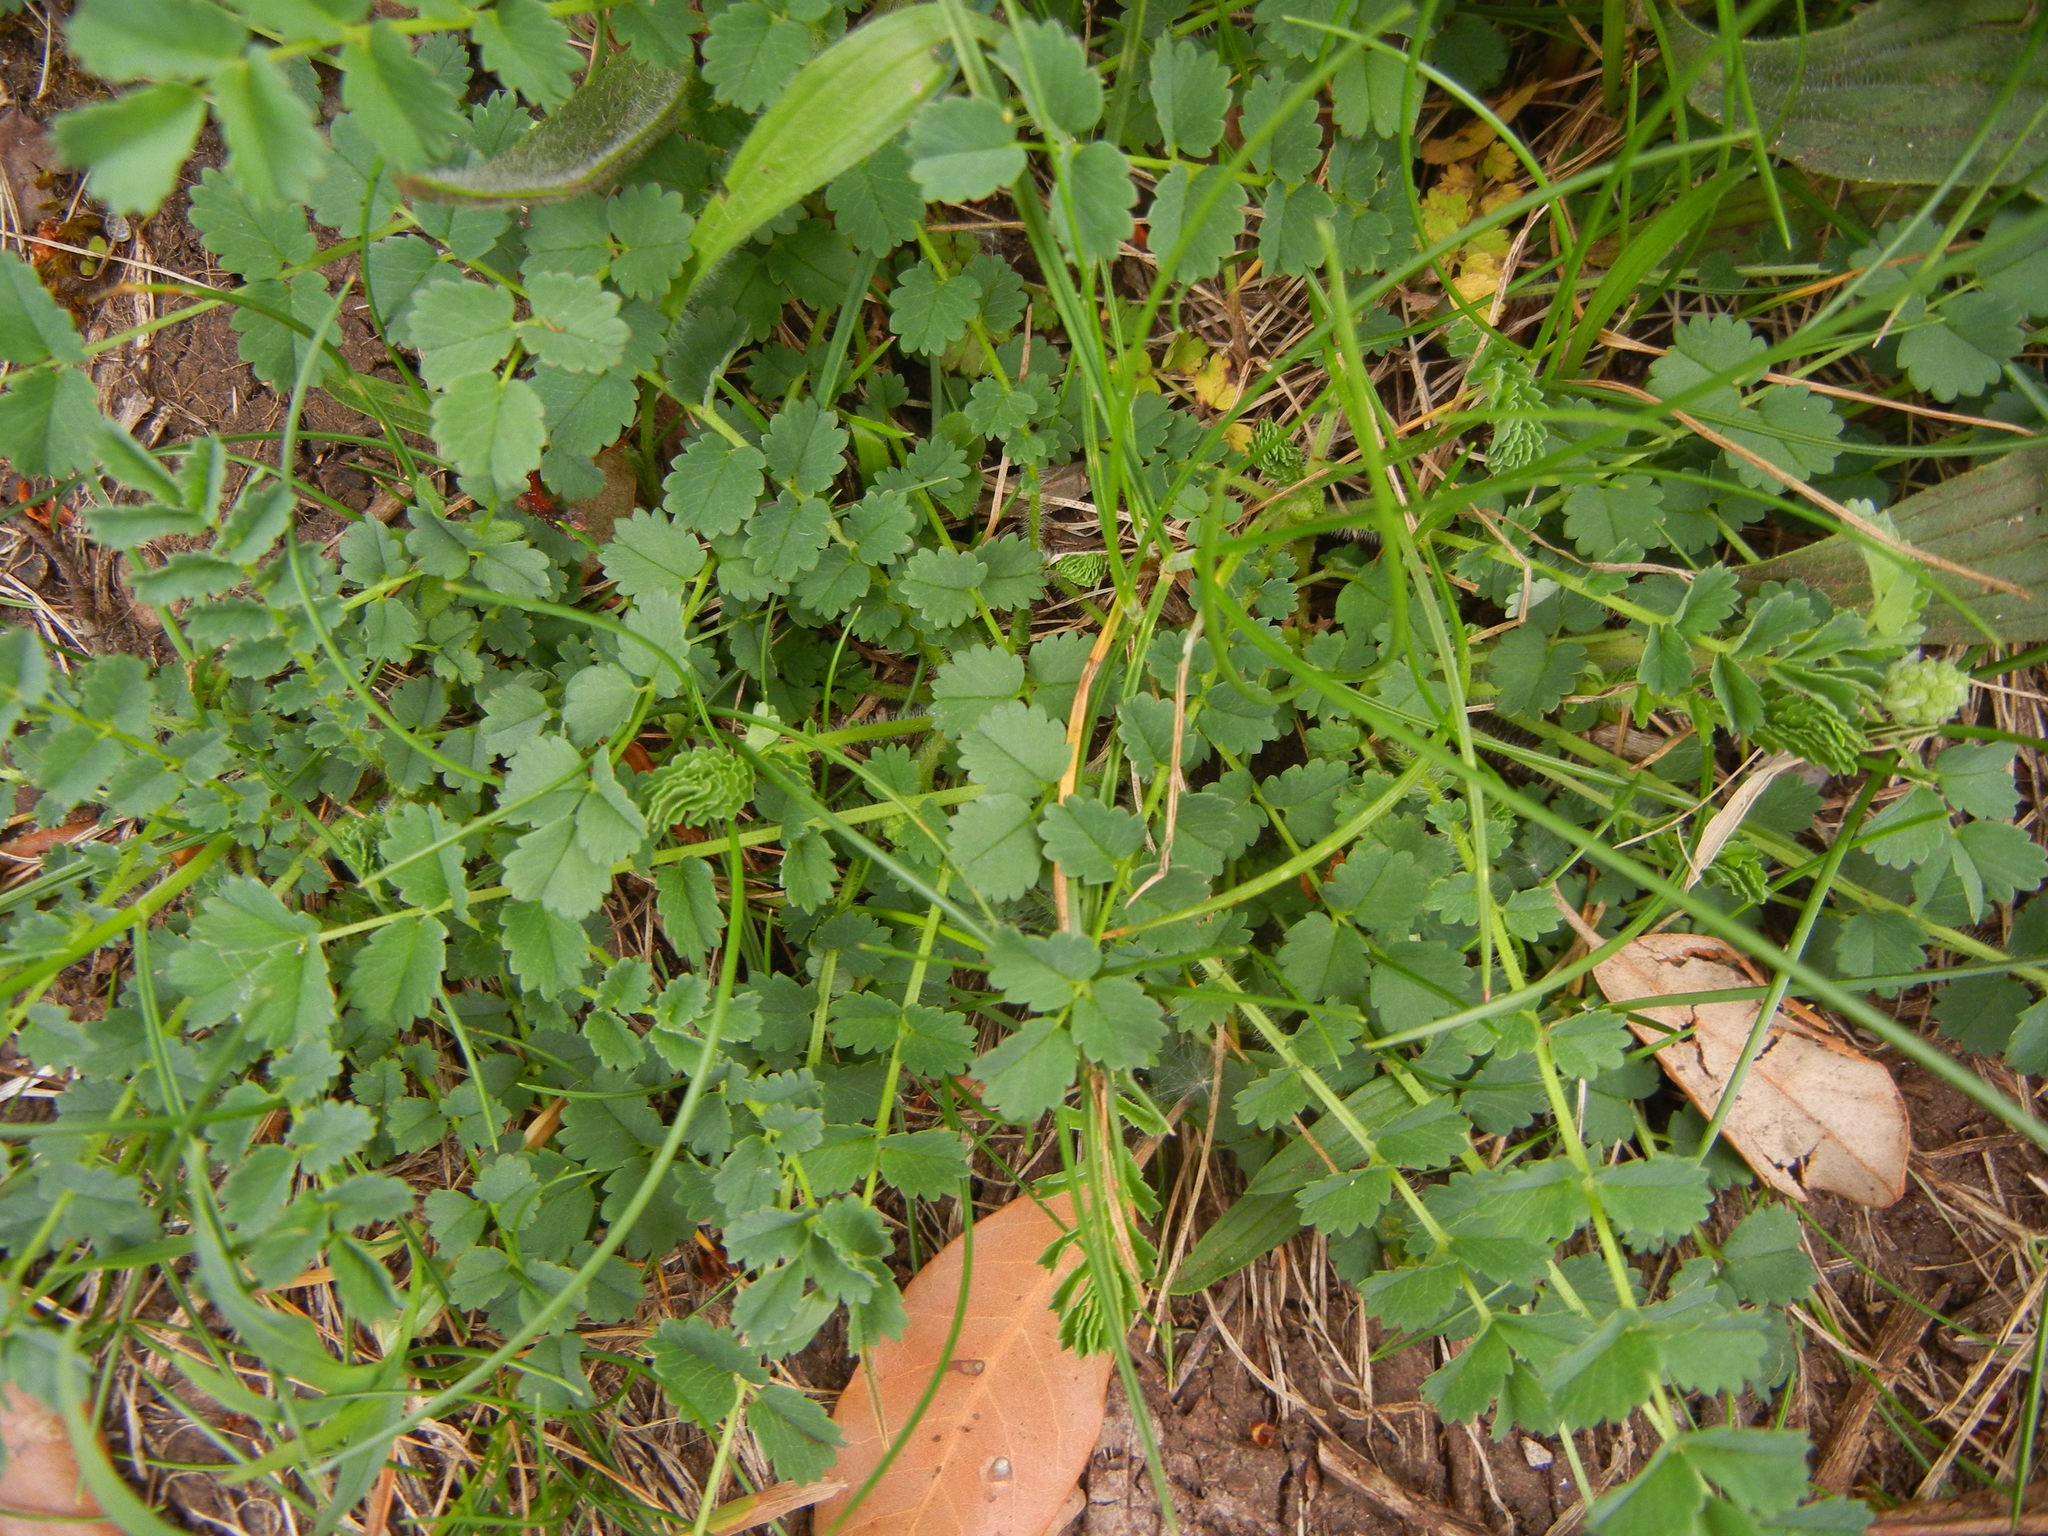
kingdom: Plantae
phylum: Tracheophyta
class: Magnoliopsida
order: Rosales
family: Rosaceae
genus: Poterium
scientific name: Poterium sanguisorba
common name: Salad burnet
